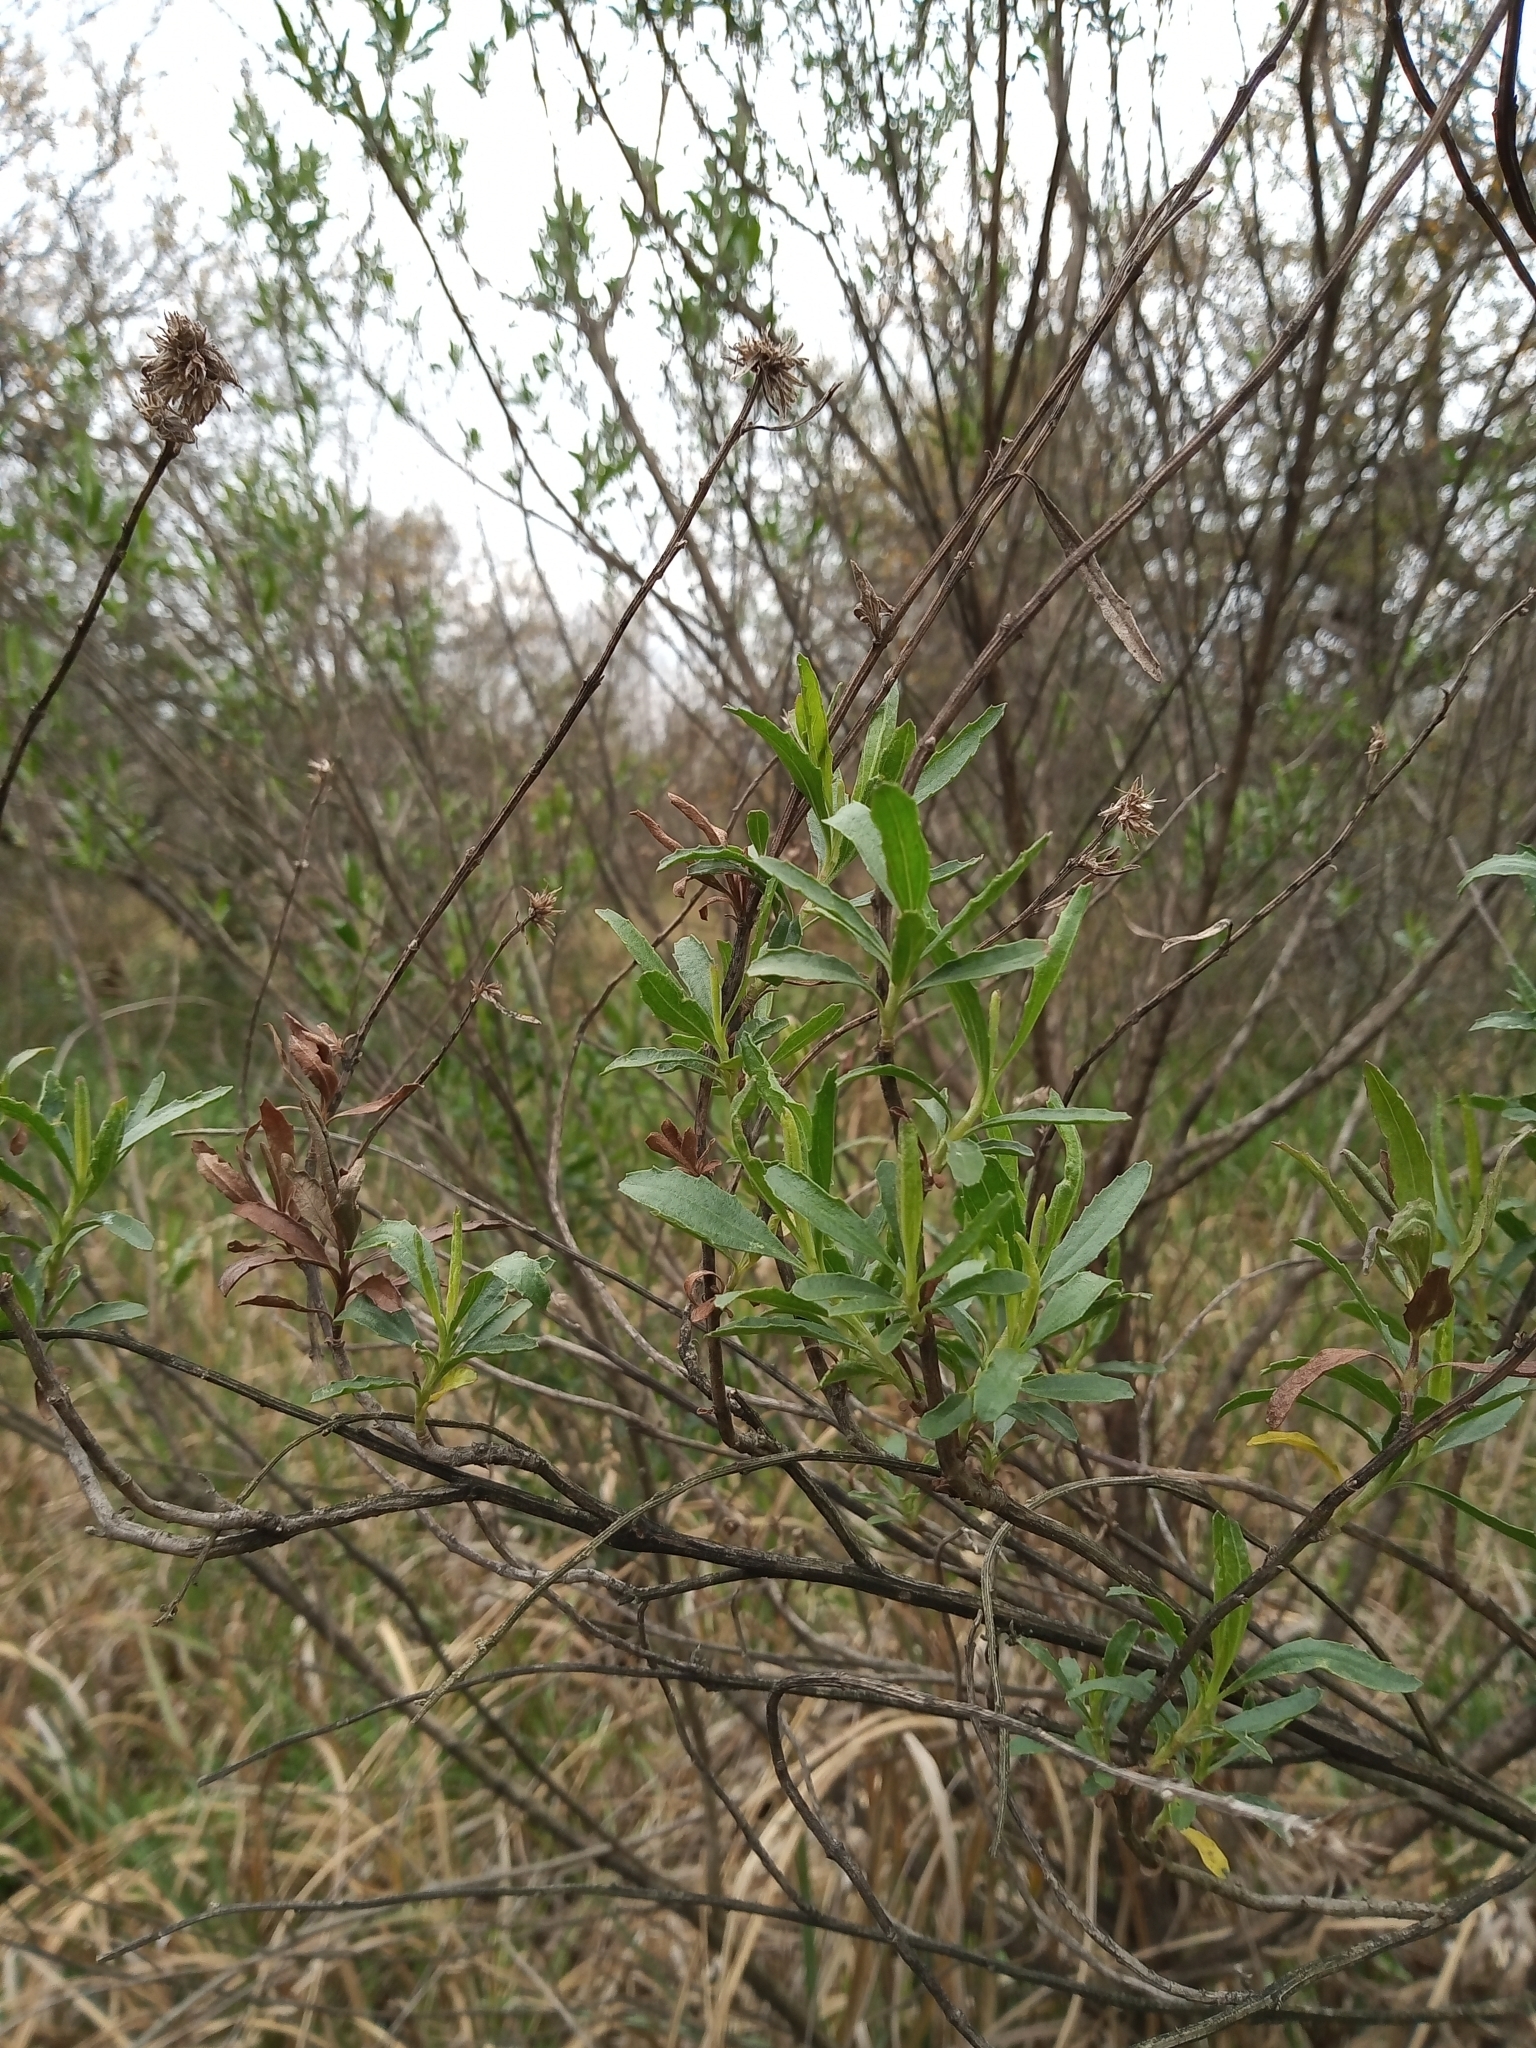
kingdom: Plantae
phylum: Tracheophyta
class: Magnoliopsida
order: Asterales
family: Asteraceae
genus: Baccharis
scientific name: Baccharis salicifolia
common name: Sticky baccharis
